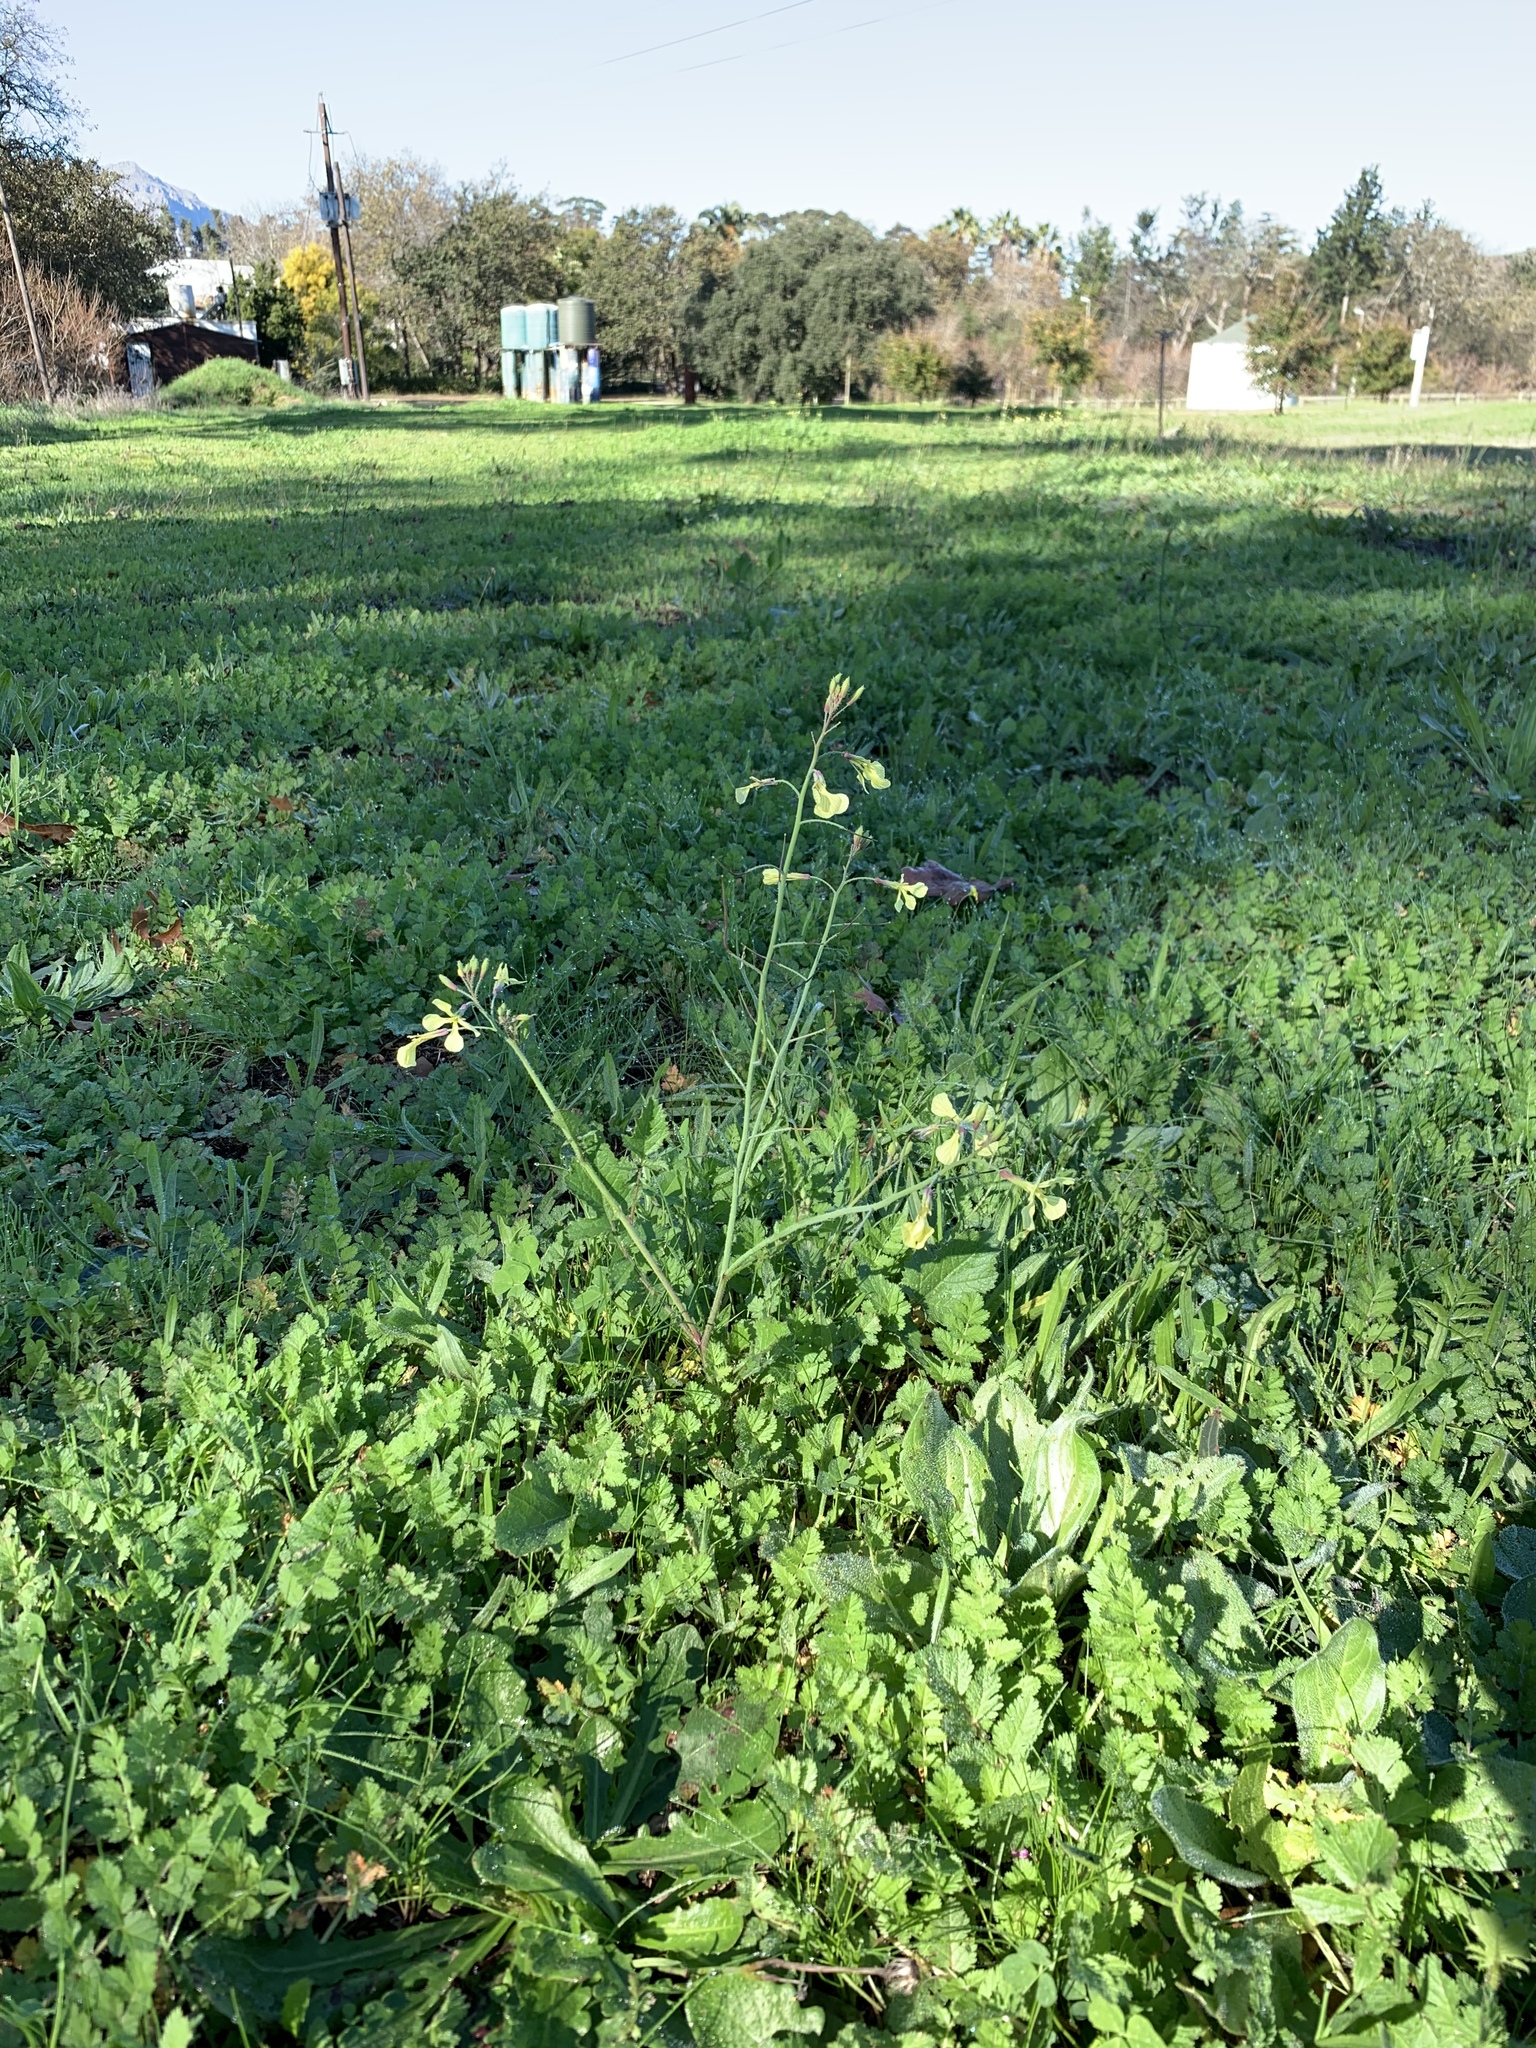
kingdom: Plantae
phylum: Tracheophyta
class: Magnoliopsida
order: Brassicales
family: Brassicaceae
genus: Raphanus
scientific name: Raphanus raphanistrum
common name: Wild radish
